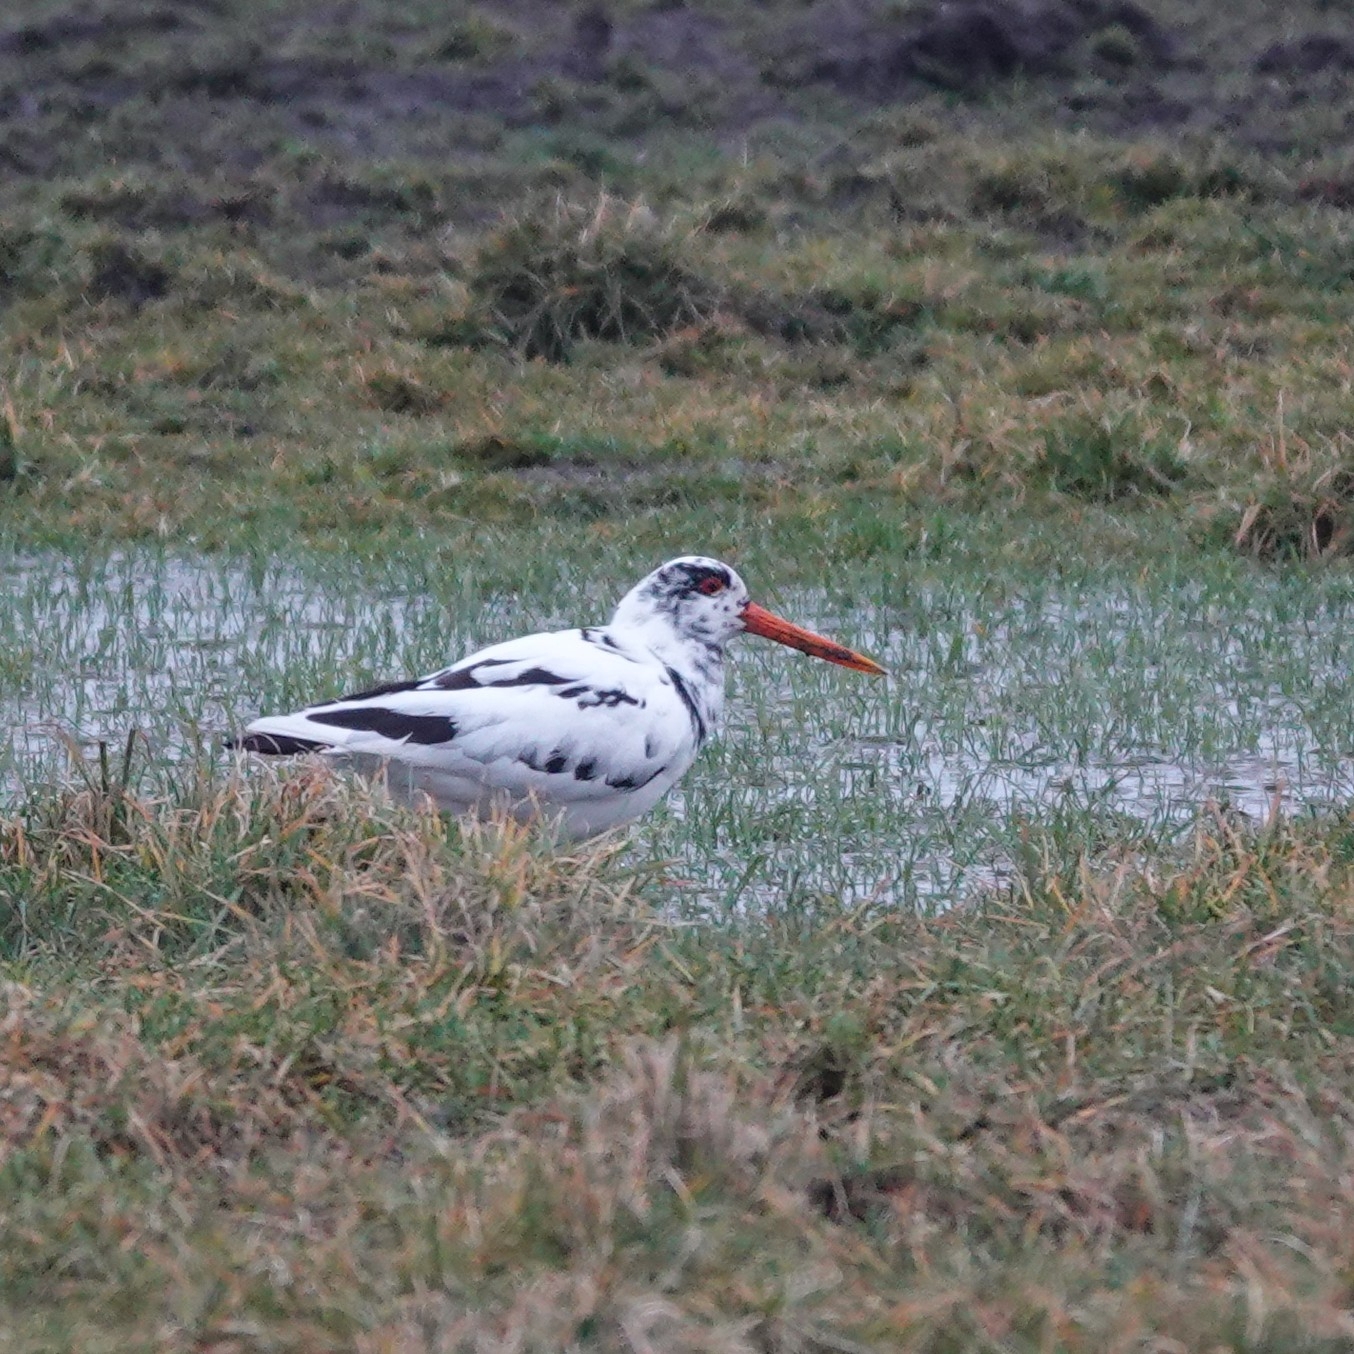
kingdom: Animalia
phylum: Chordata
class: Aves
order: Charadriiformes
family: Haematopodidae
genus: Haematopus
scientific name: Haematopus ostralegus
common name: Eurasian oystercatcher
